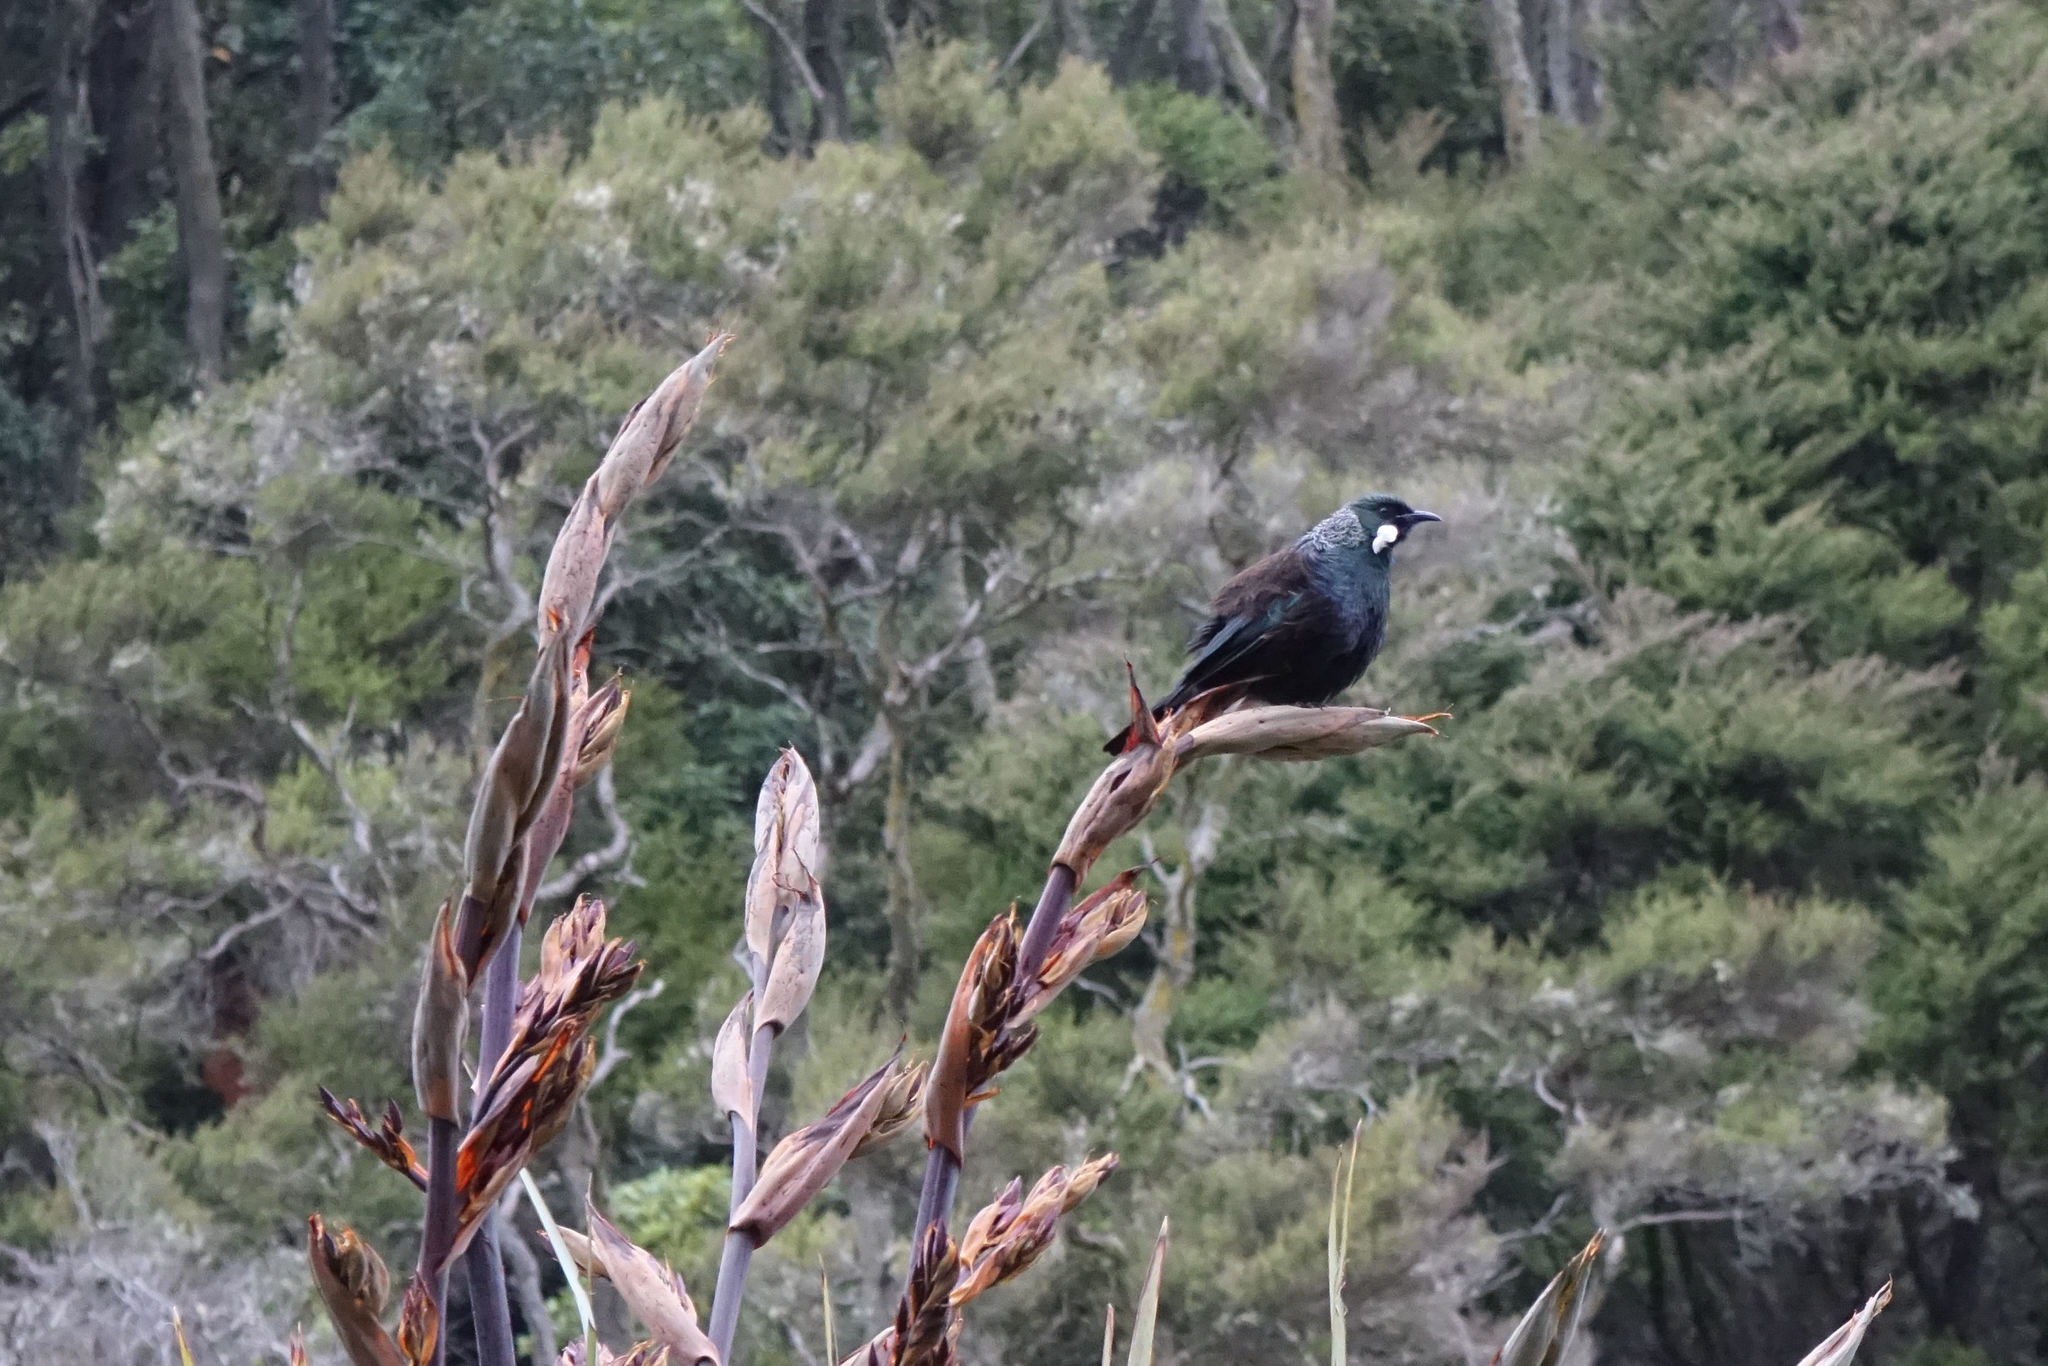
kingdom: Animalia
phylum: Chordata
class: Aves
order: Passeriformes
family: Meliphagidae
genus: Prosthemadera
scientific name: Prosthemadera novaeseelandiae
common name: Tui
